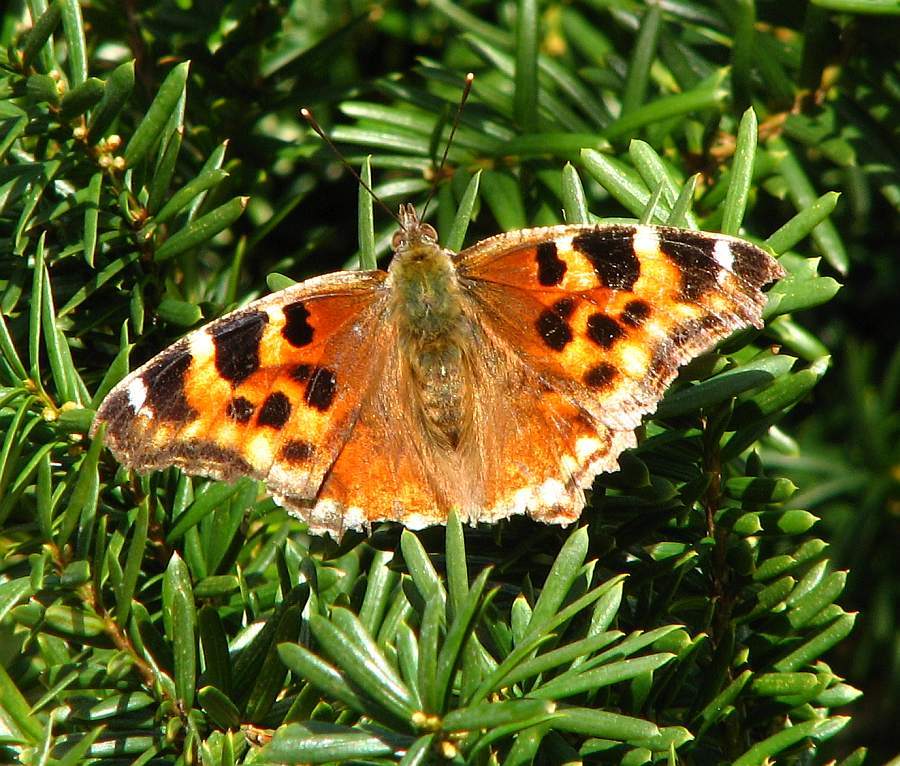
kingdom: Animalia
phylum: Arthropoda
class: Insecta
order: Lepidoptera
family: Nymphalidae
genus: Polygonia
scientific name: Polygonia vaualbum
